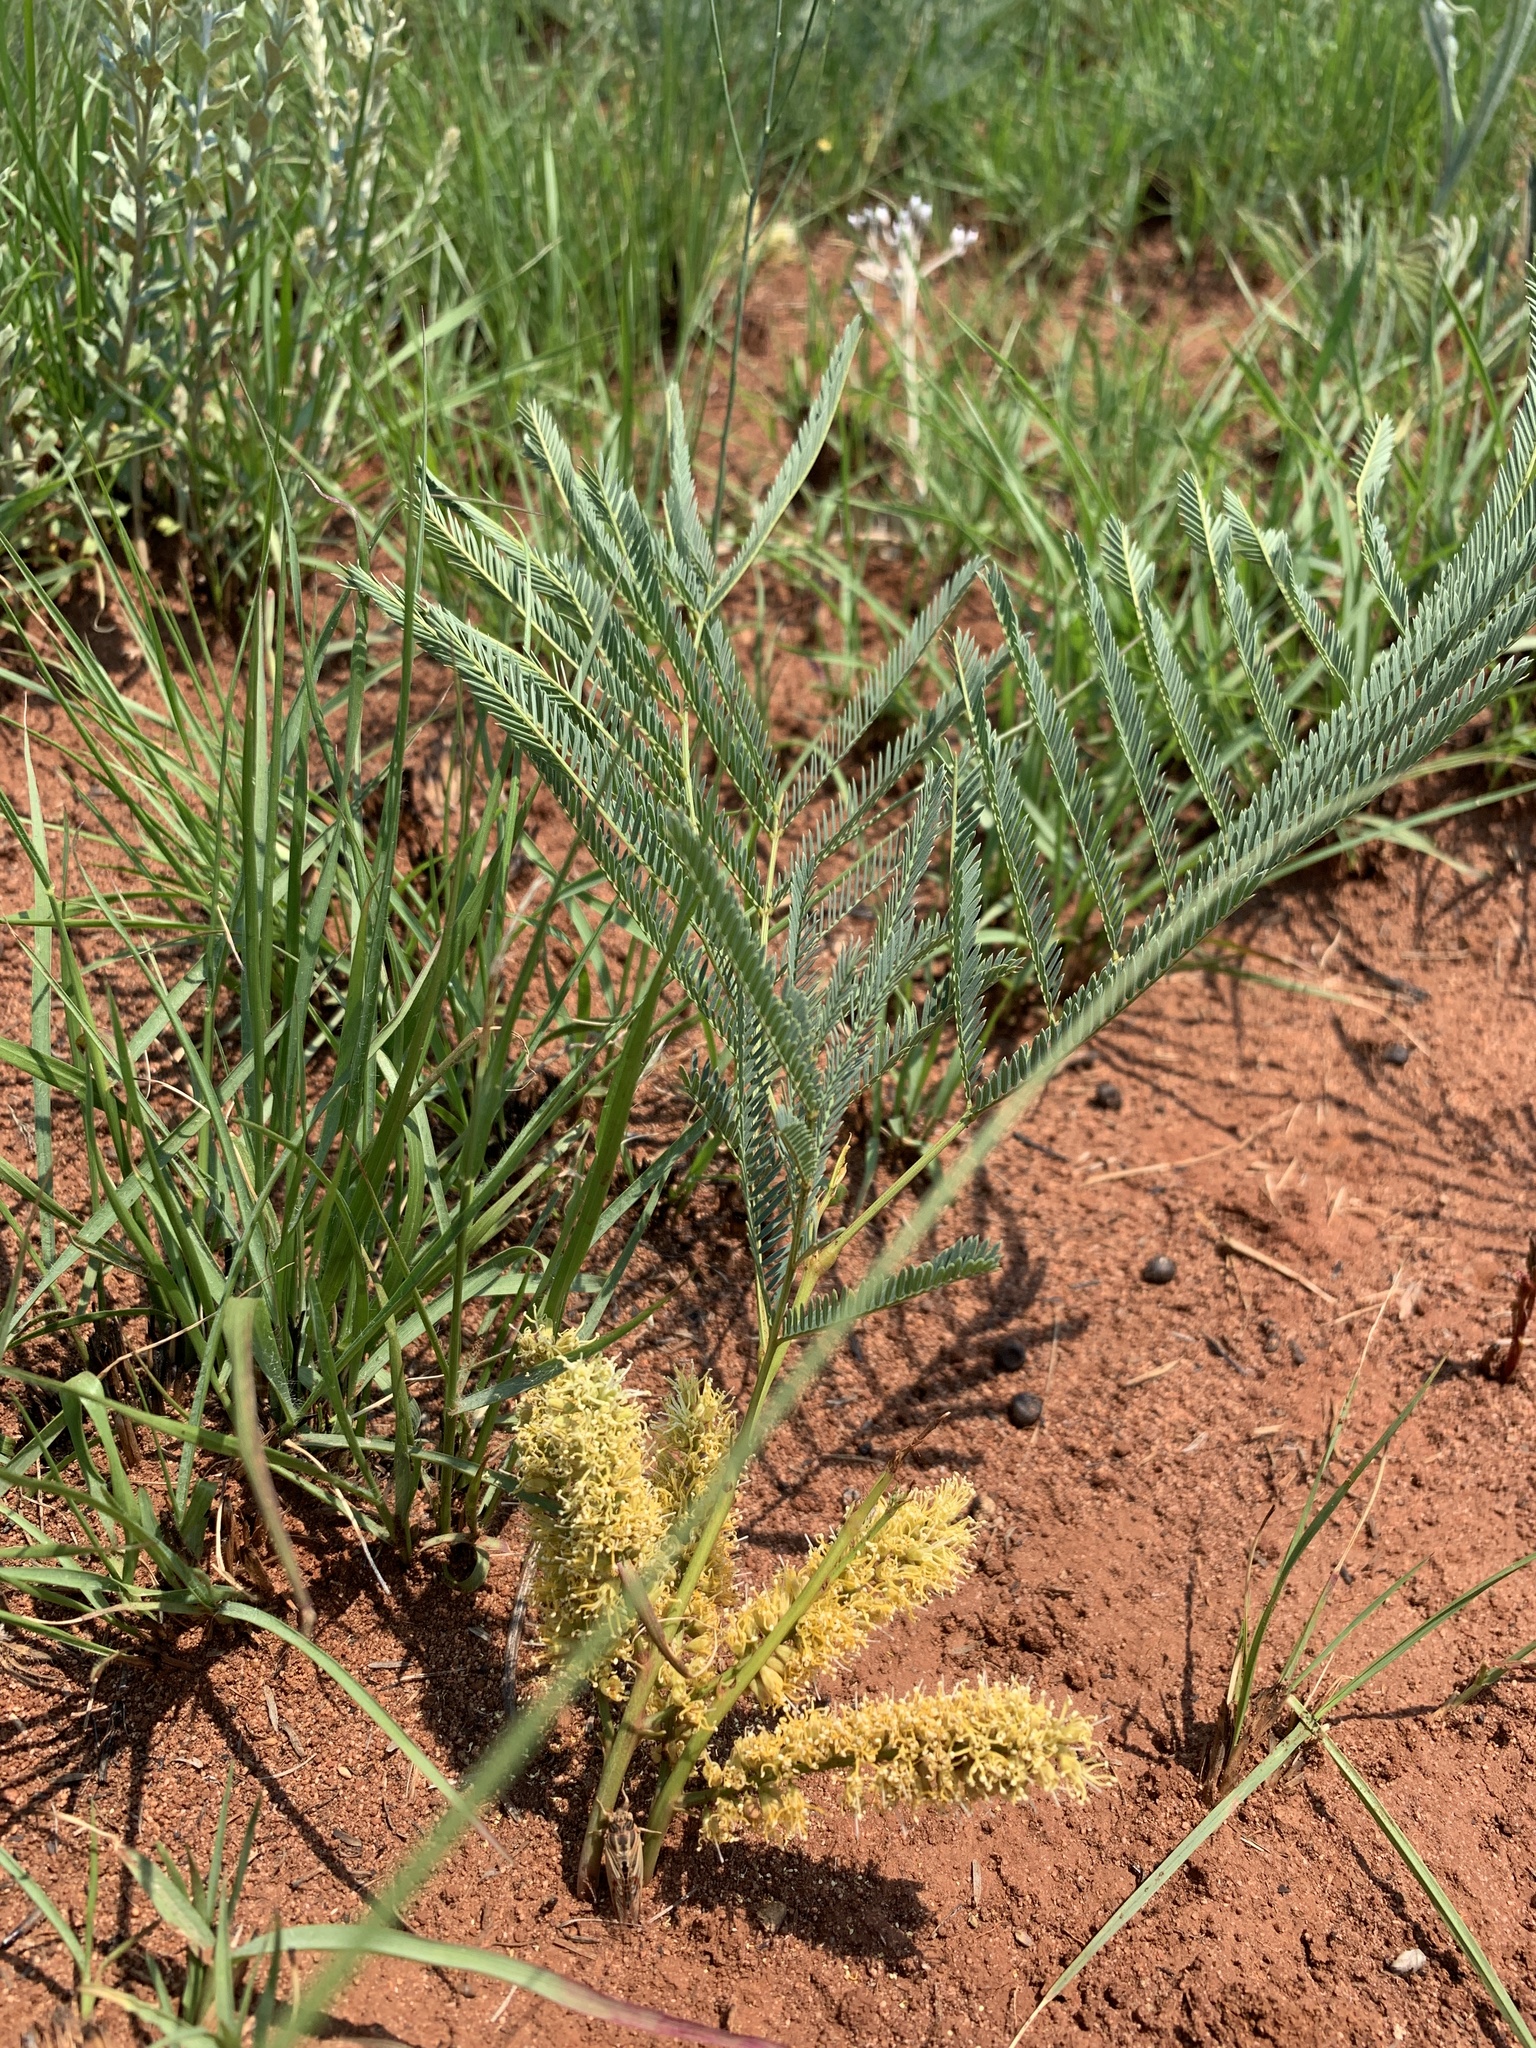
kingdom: Plantae
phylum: Tracheophyta
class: Magnoliopsida
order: Fabales
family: Fabaceae
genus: Elephantorrhiza
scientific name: Elephantorrhiza elephantina
